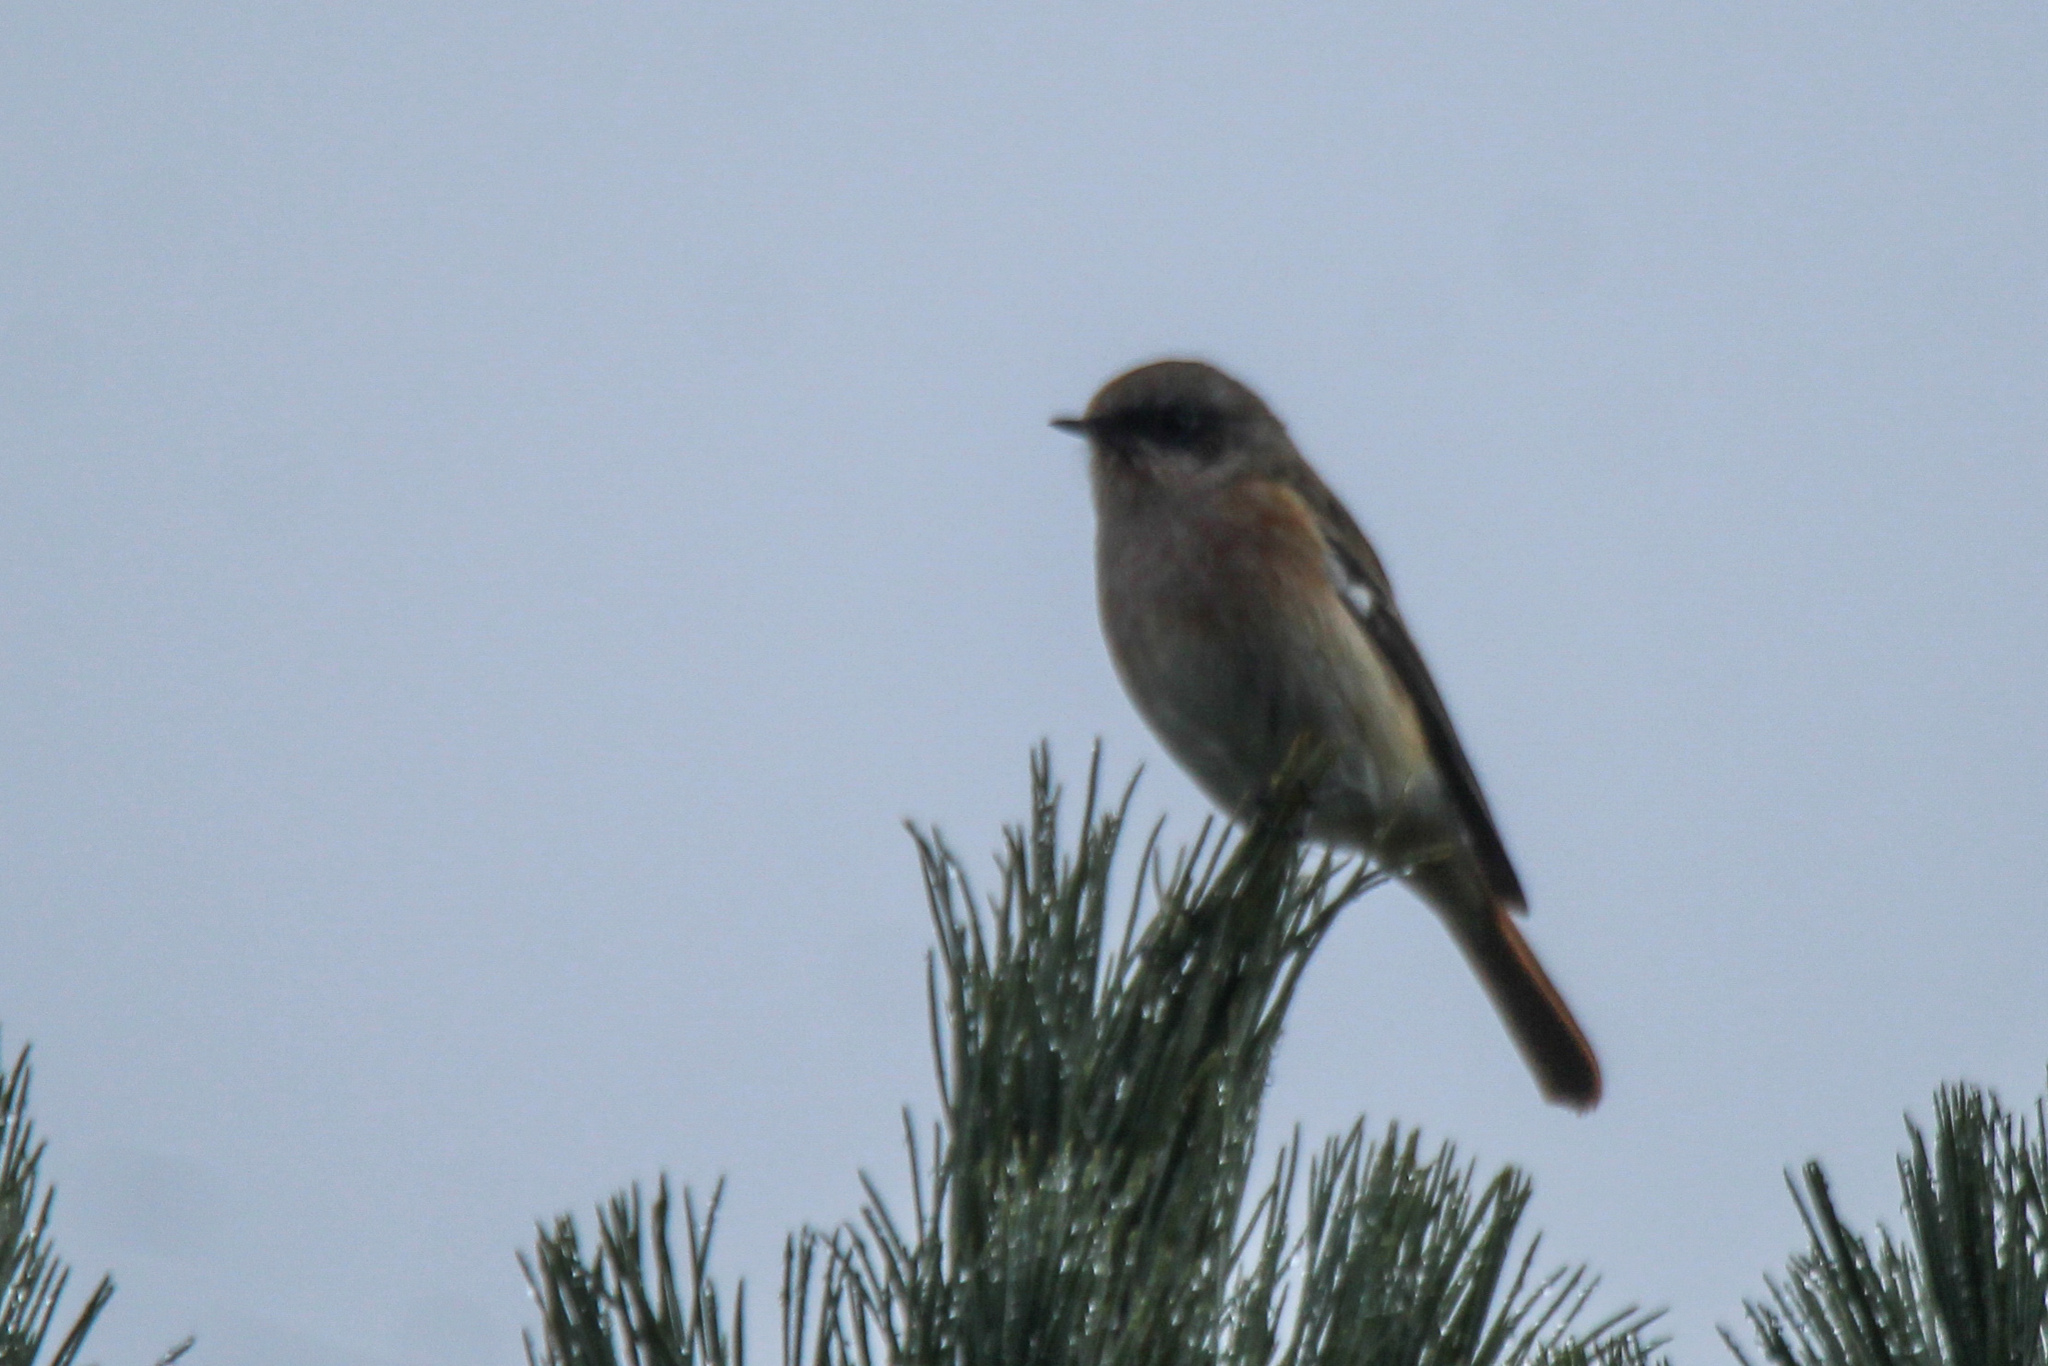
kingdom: Animalia
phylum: Chordata
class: Aves
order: Passeriformes
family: Muscicapidae
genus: Phoenicurus
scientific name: Phoenicurus erythronotus
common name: Eversmann's redstart
